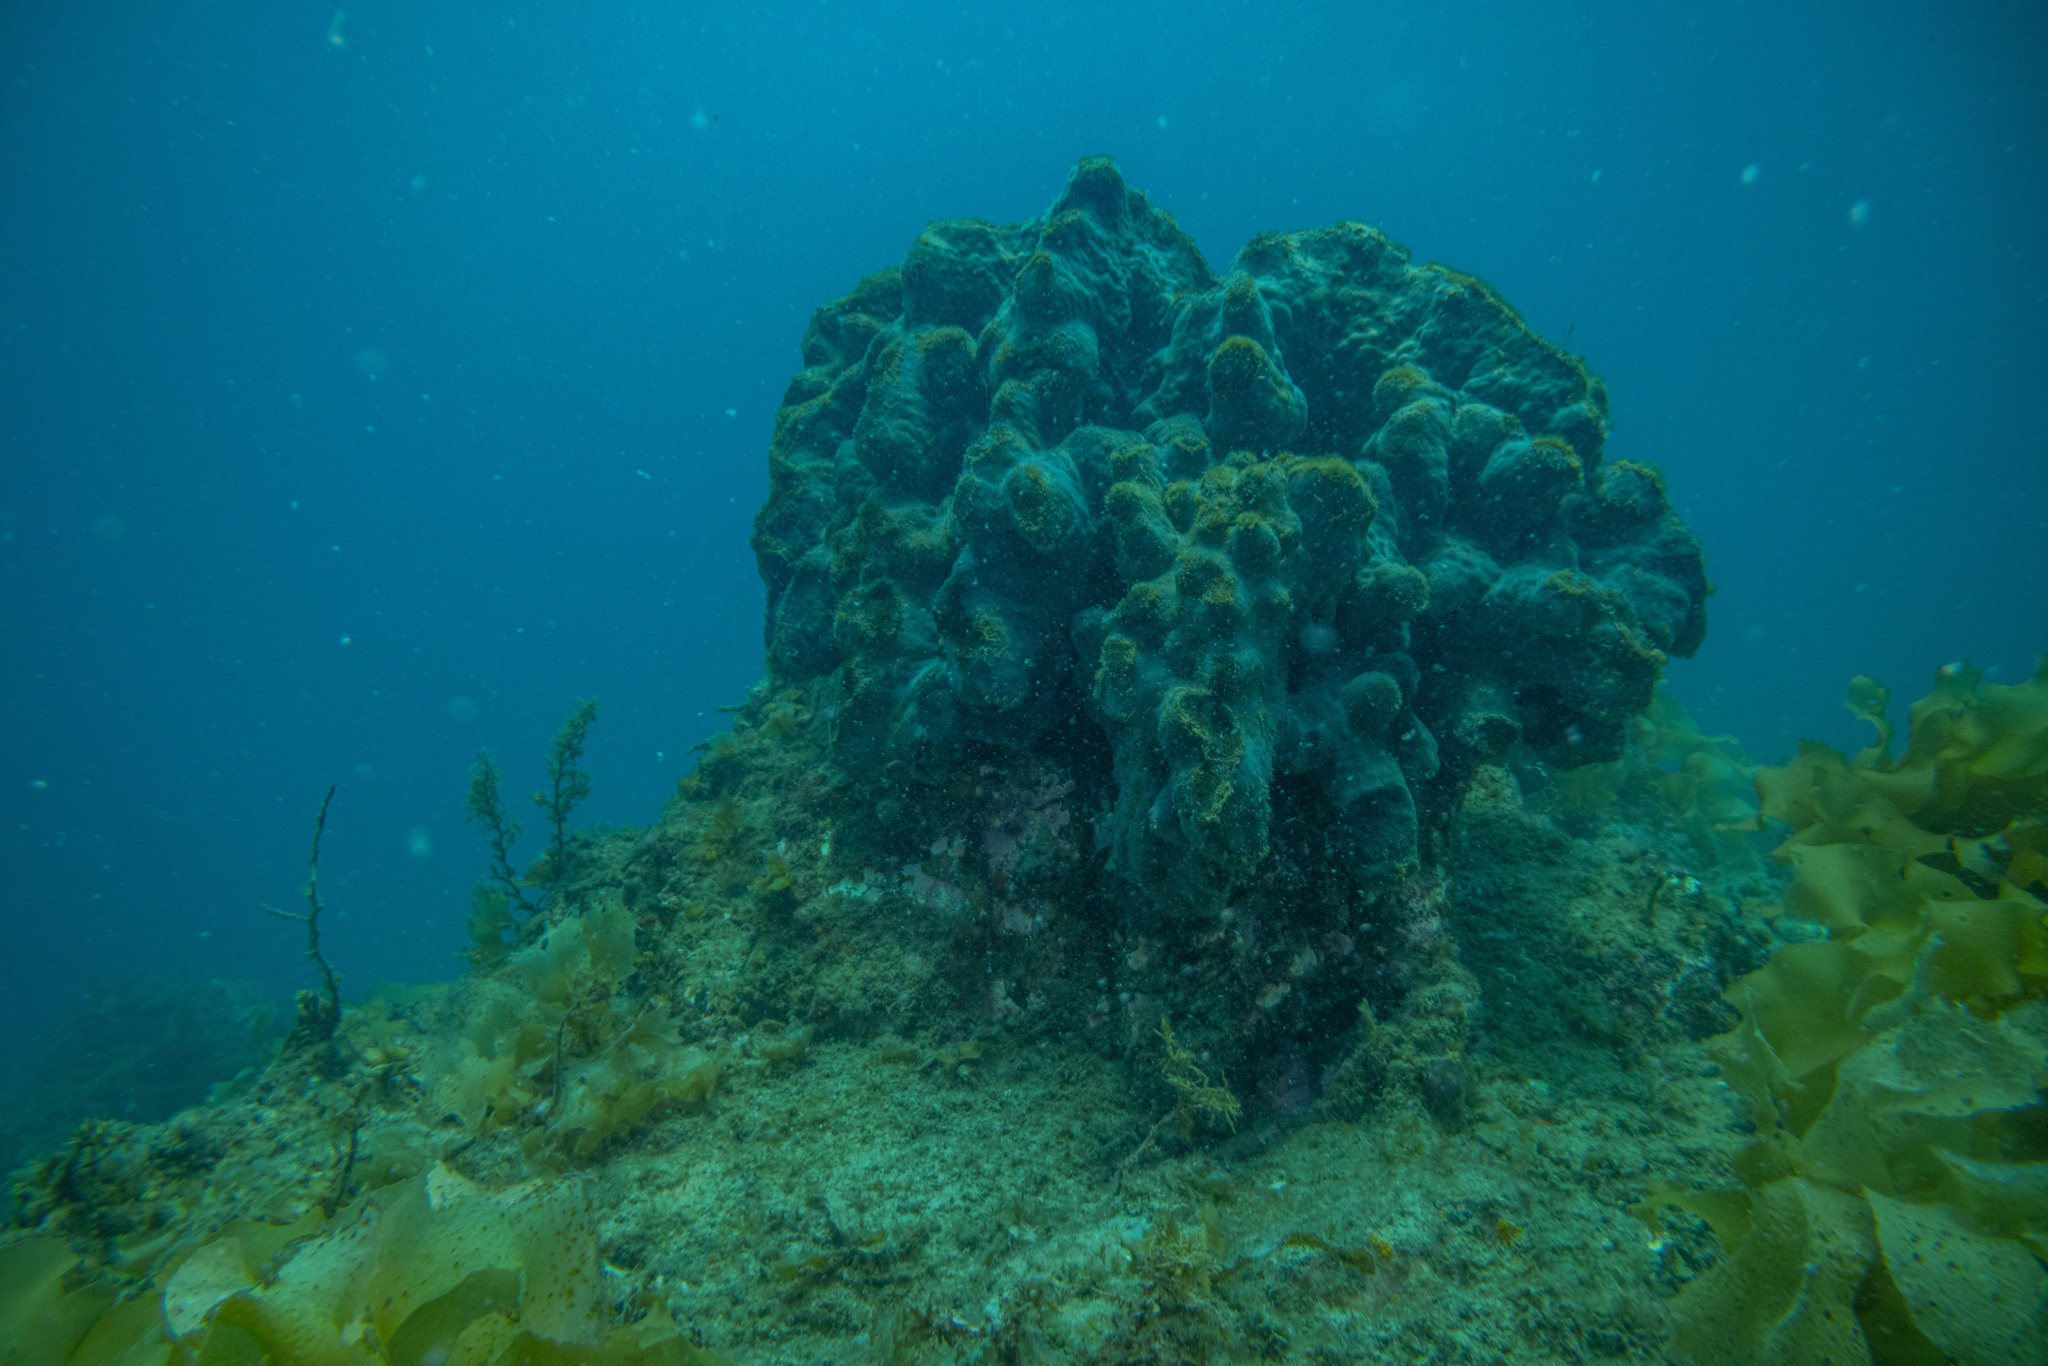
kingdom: Animalia
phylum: Porifera
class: Demospongiae
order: Tetractinellida
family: Ancorinidae
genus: Ecionemia
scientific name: Ecionemia alata
